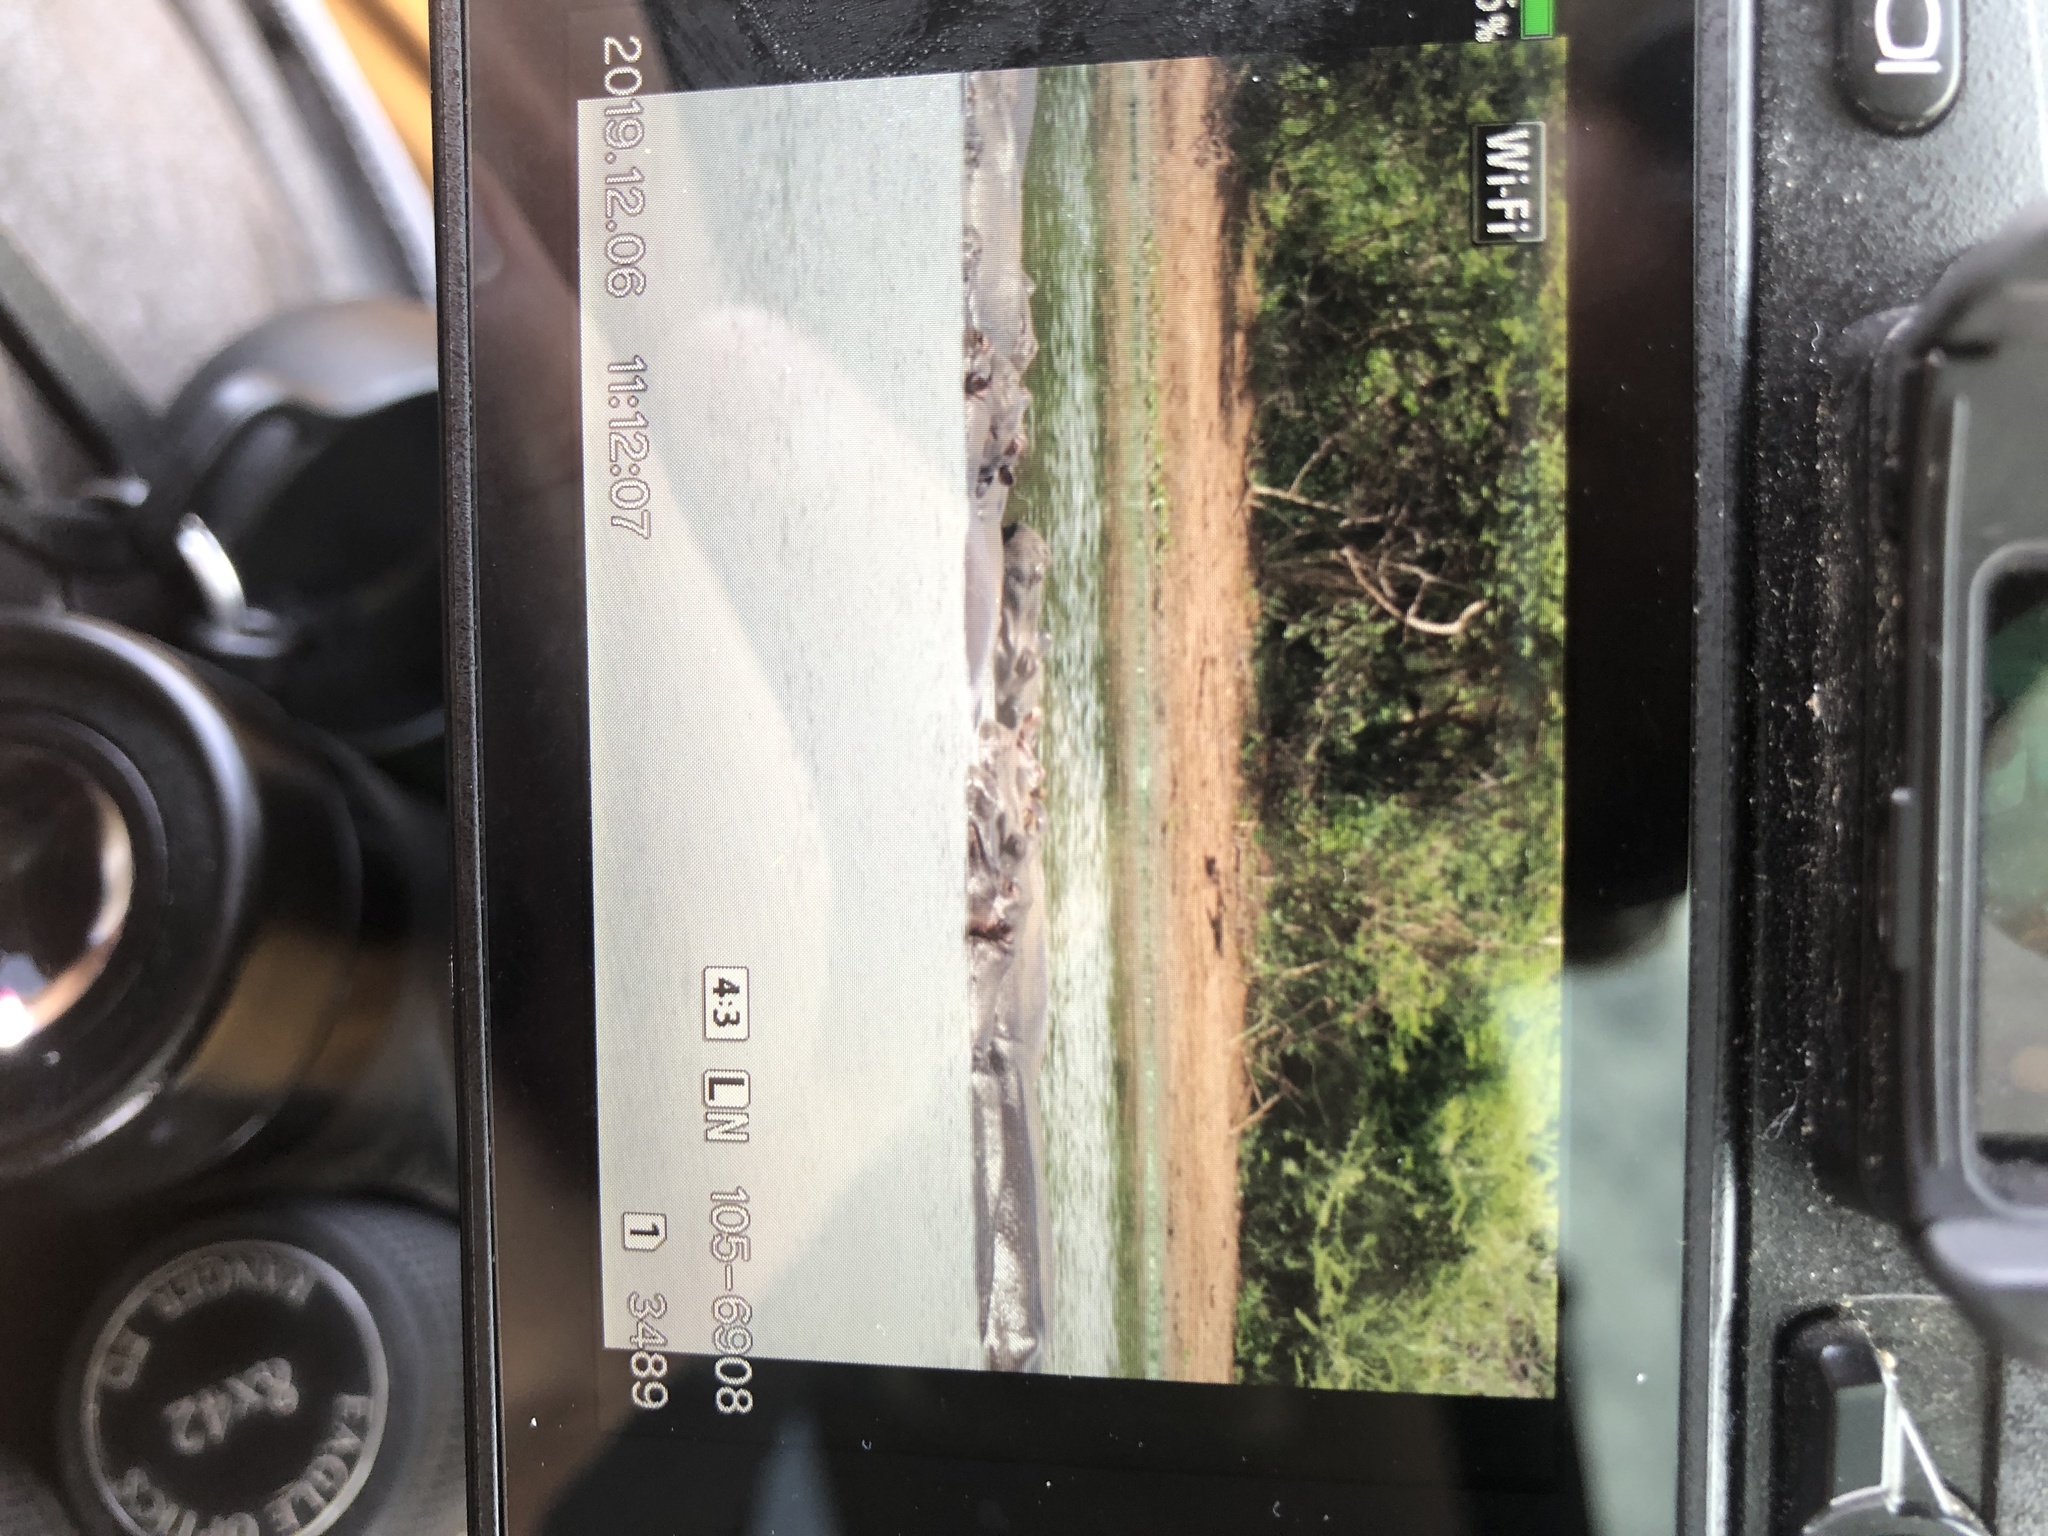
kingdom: Animalia
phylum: Chordata
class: Mammalia
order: Artiodactyla
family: Hippopotamidae
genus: Hippopotamus
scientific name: Hippopotamus amphibius
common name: Common hippopotamus
